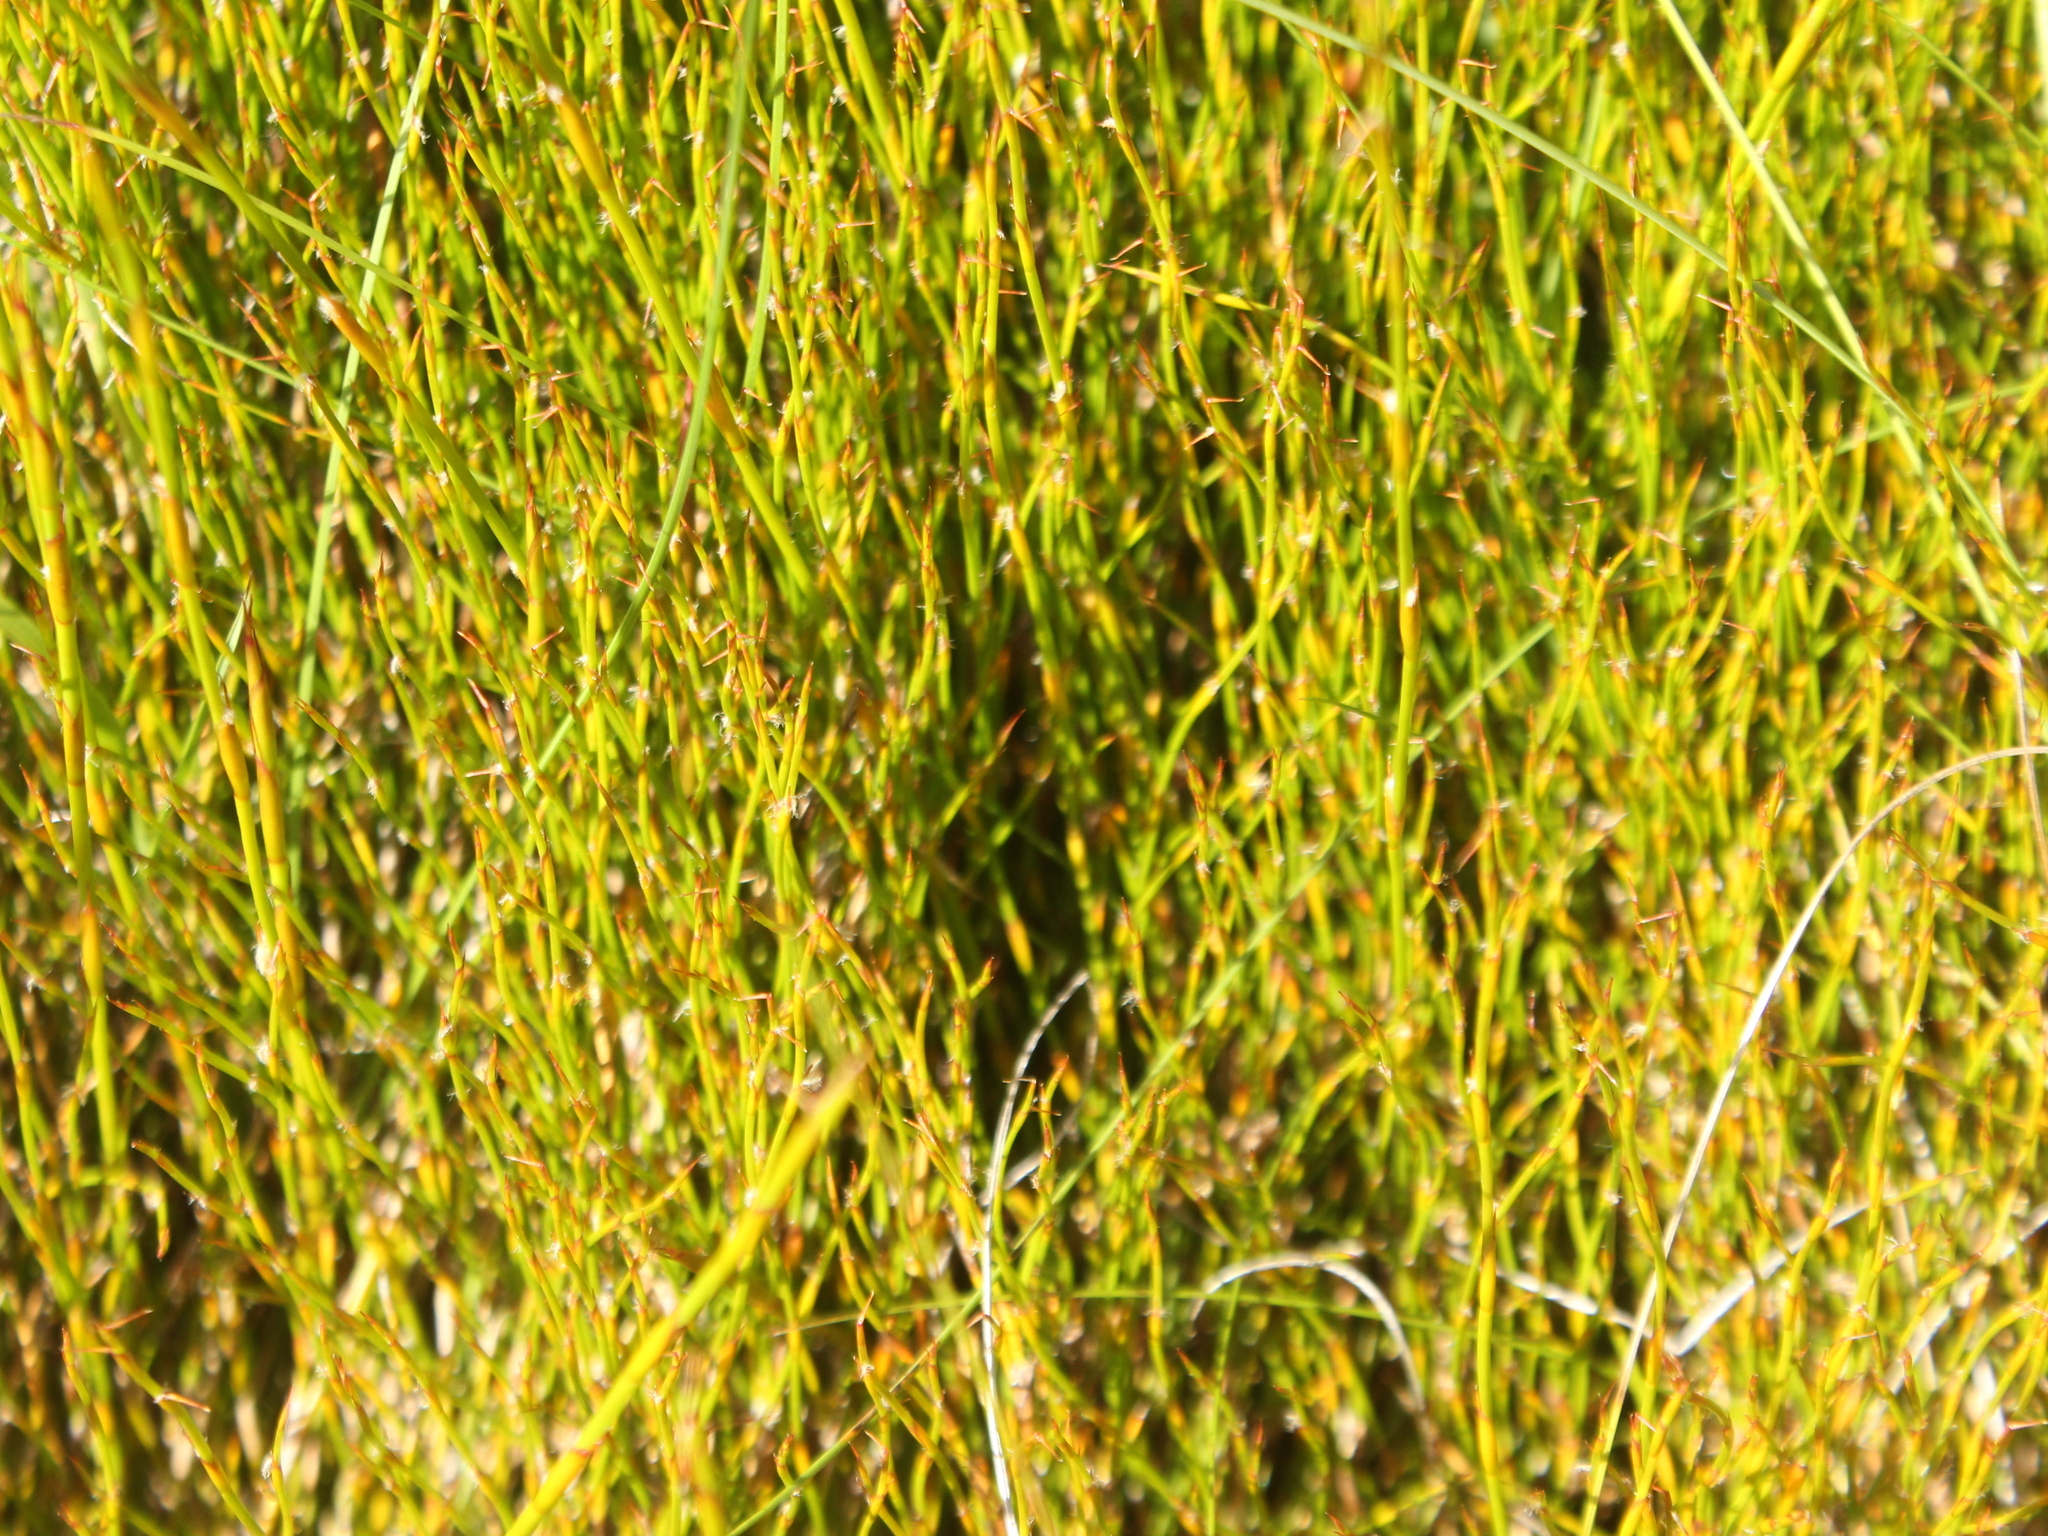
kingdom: Plantae
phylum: Tracheophyta
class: Liliopsida
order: Poales
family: Restionaceae
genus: Empodisma
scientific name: Empodisma minus
